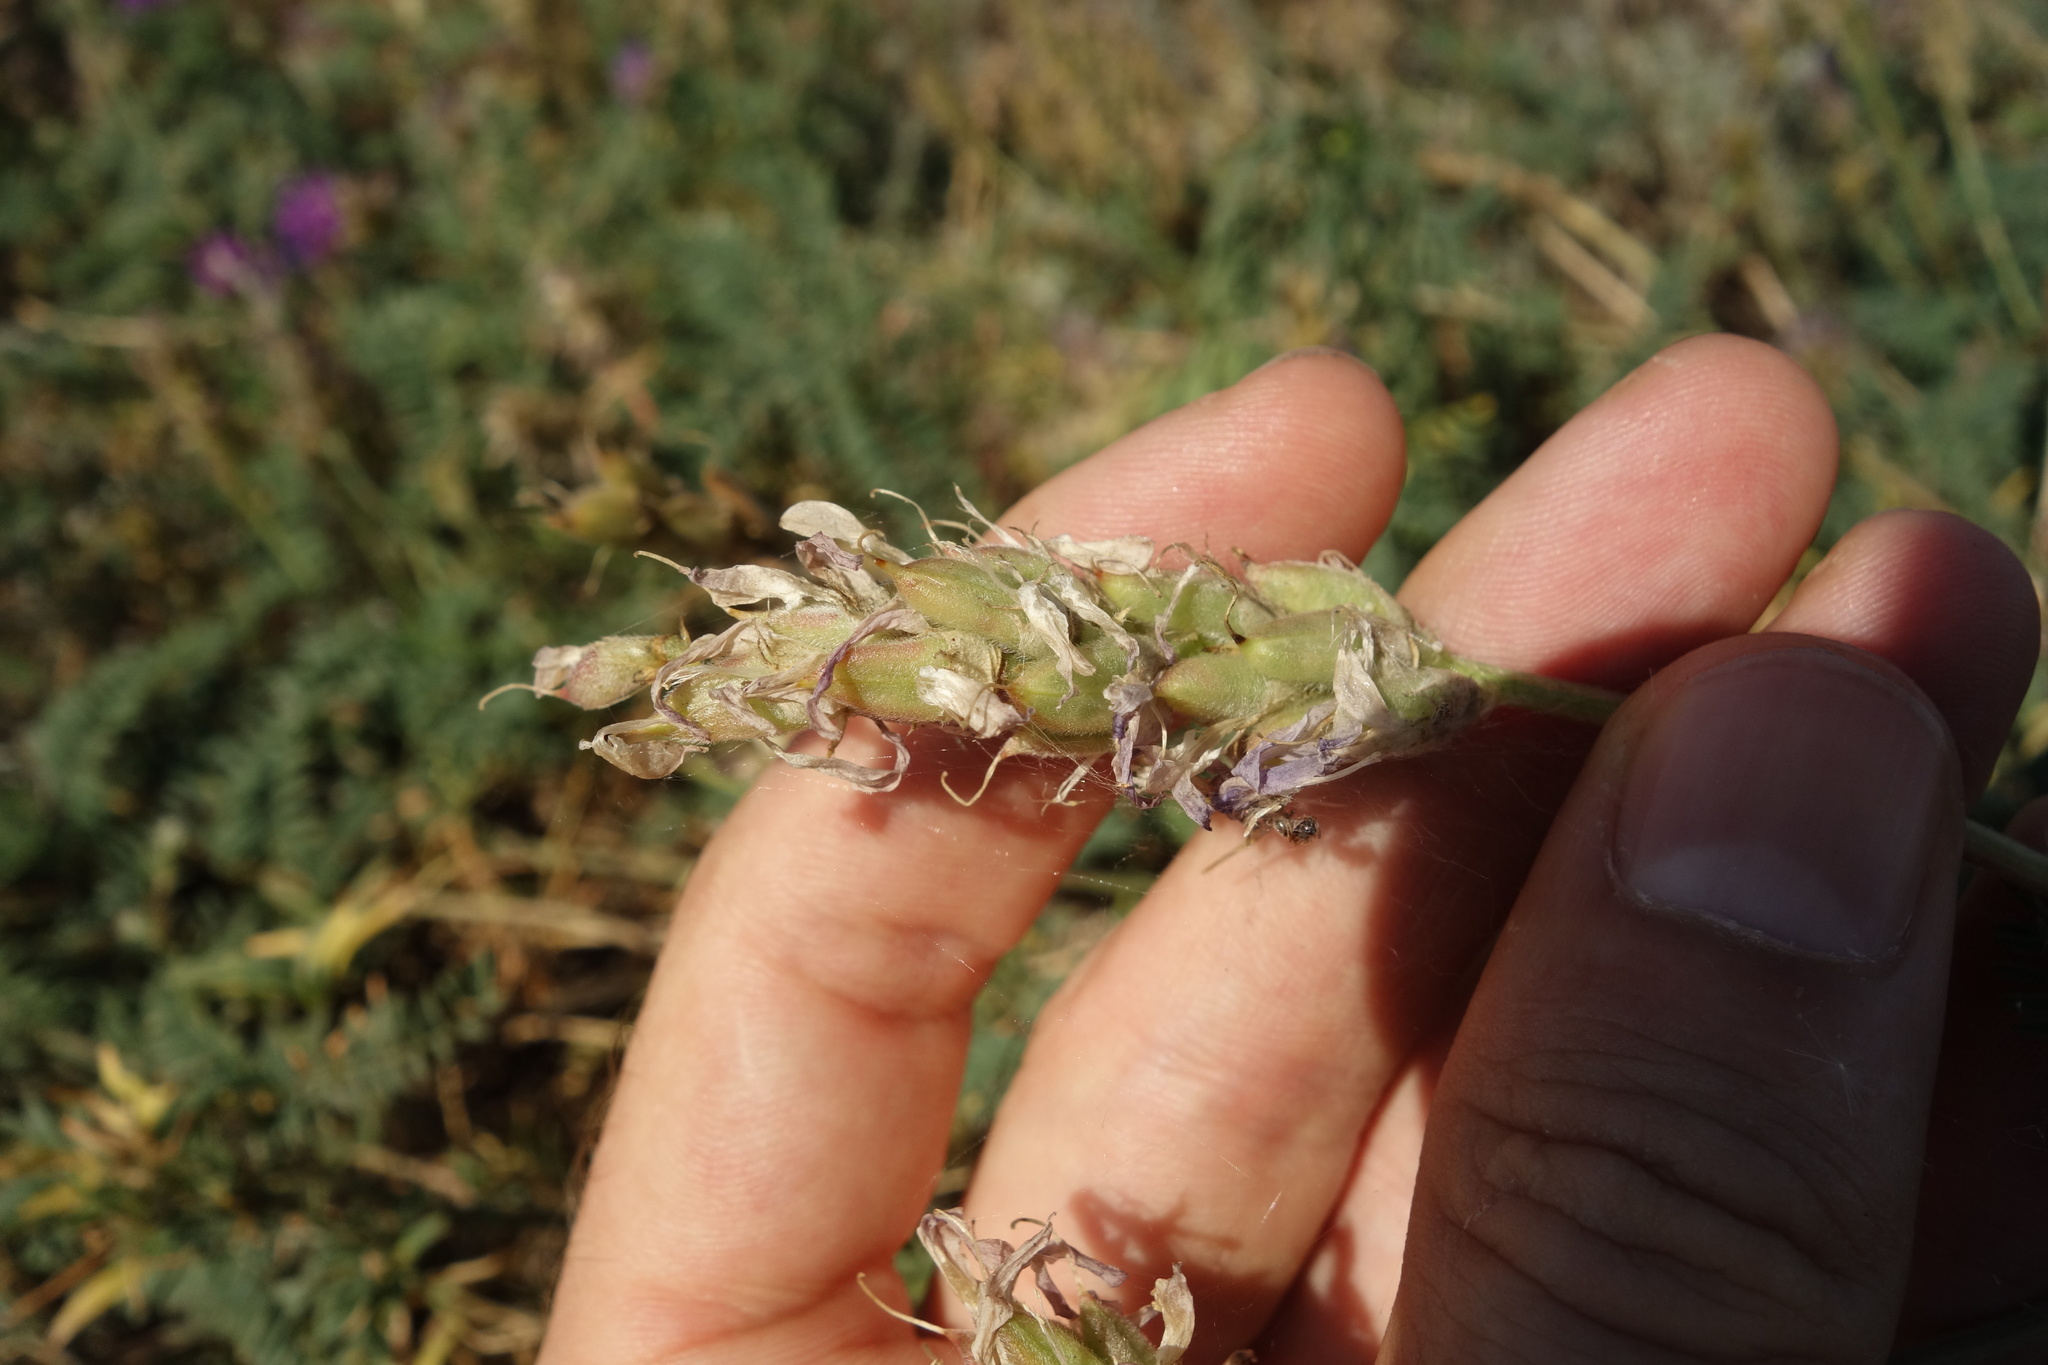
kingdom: Plantae
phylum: Tracheophyta
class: Magnoliopsida
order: Fabales
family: Fabaceae
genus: Astragalus
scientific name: Astragalus onobrychis
